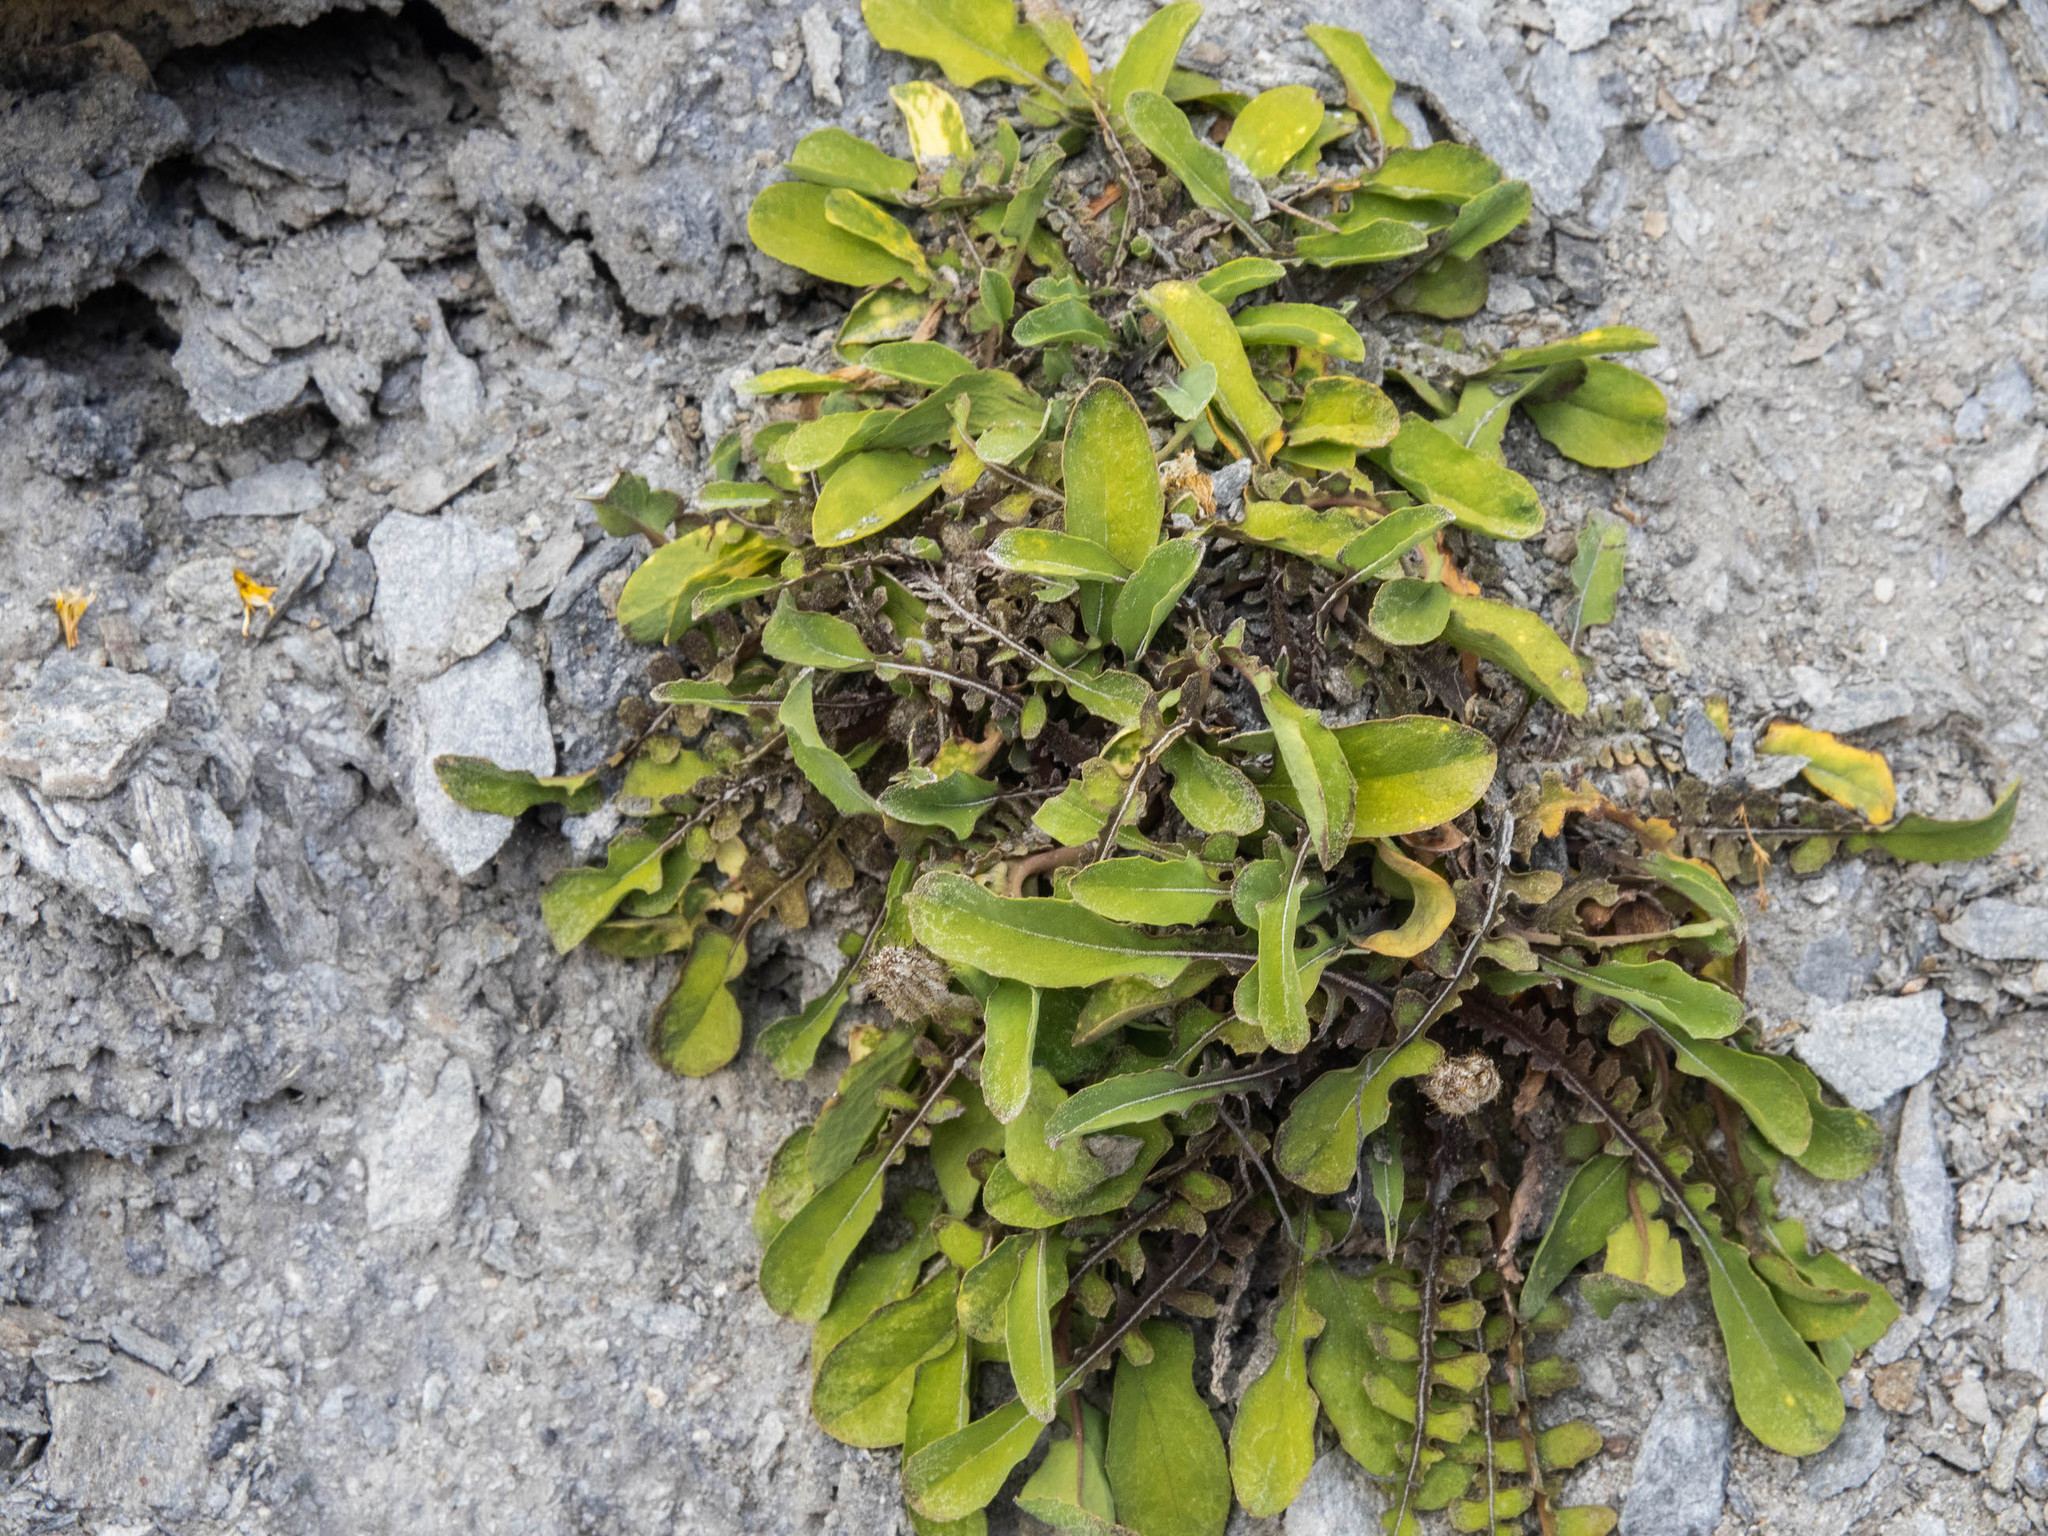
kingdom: Plantae
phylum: Tracheophyta
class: Magnoliopsida
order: Asterales
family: Asteraceae
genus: Sonchus
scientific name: Sonchus novae-zelandiae
